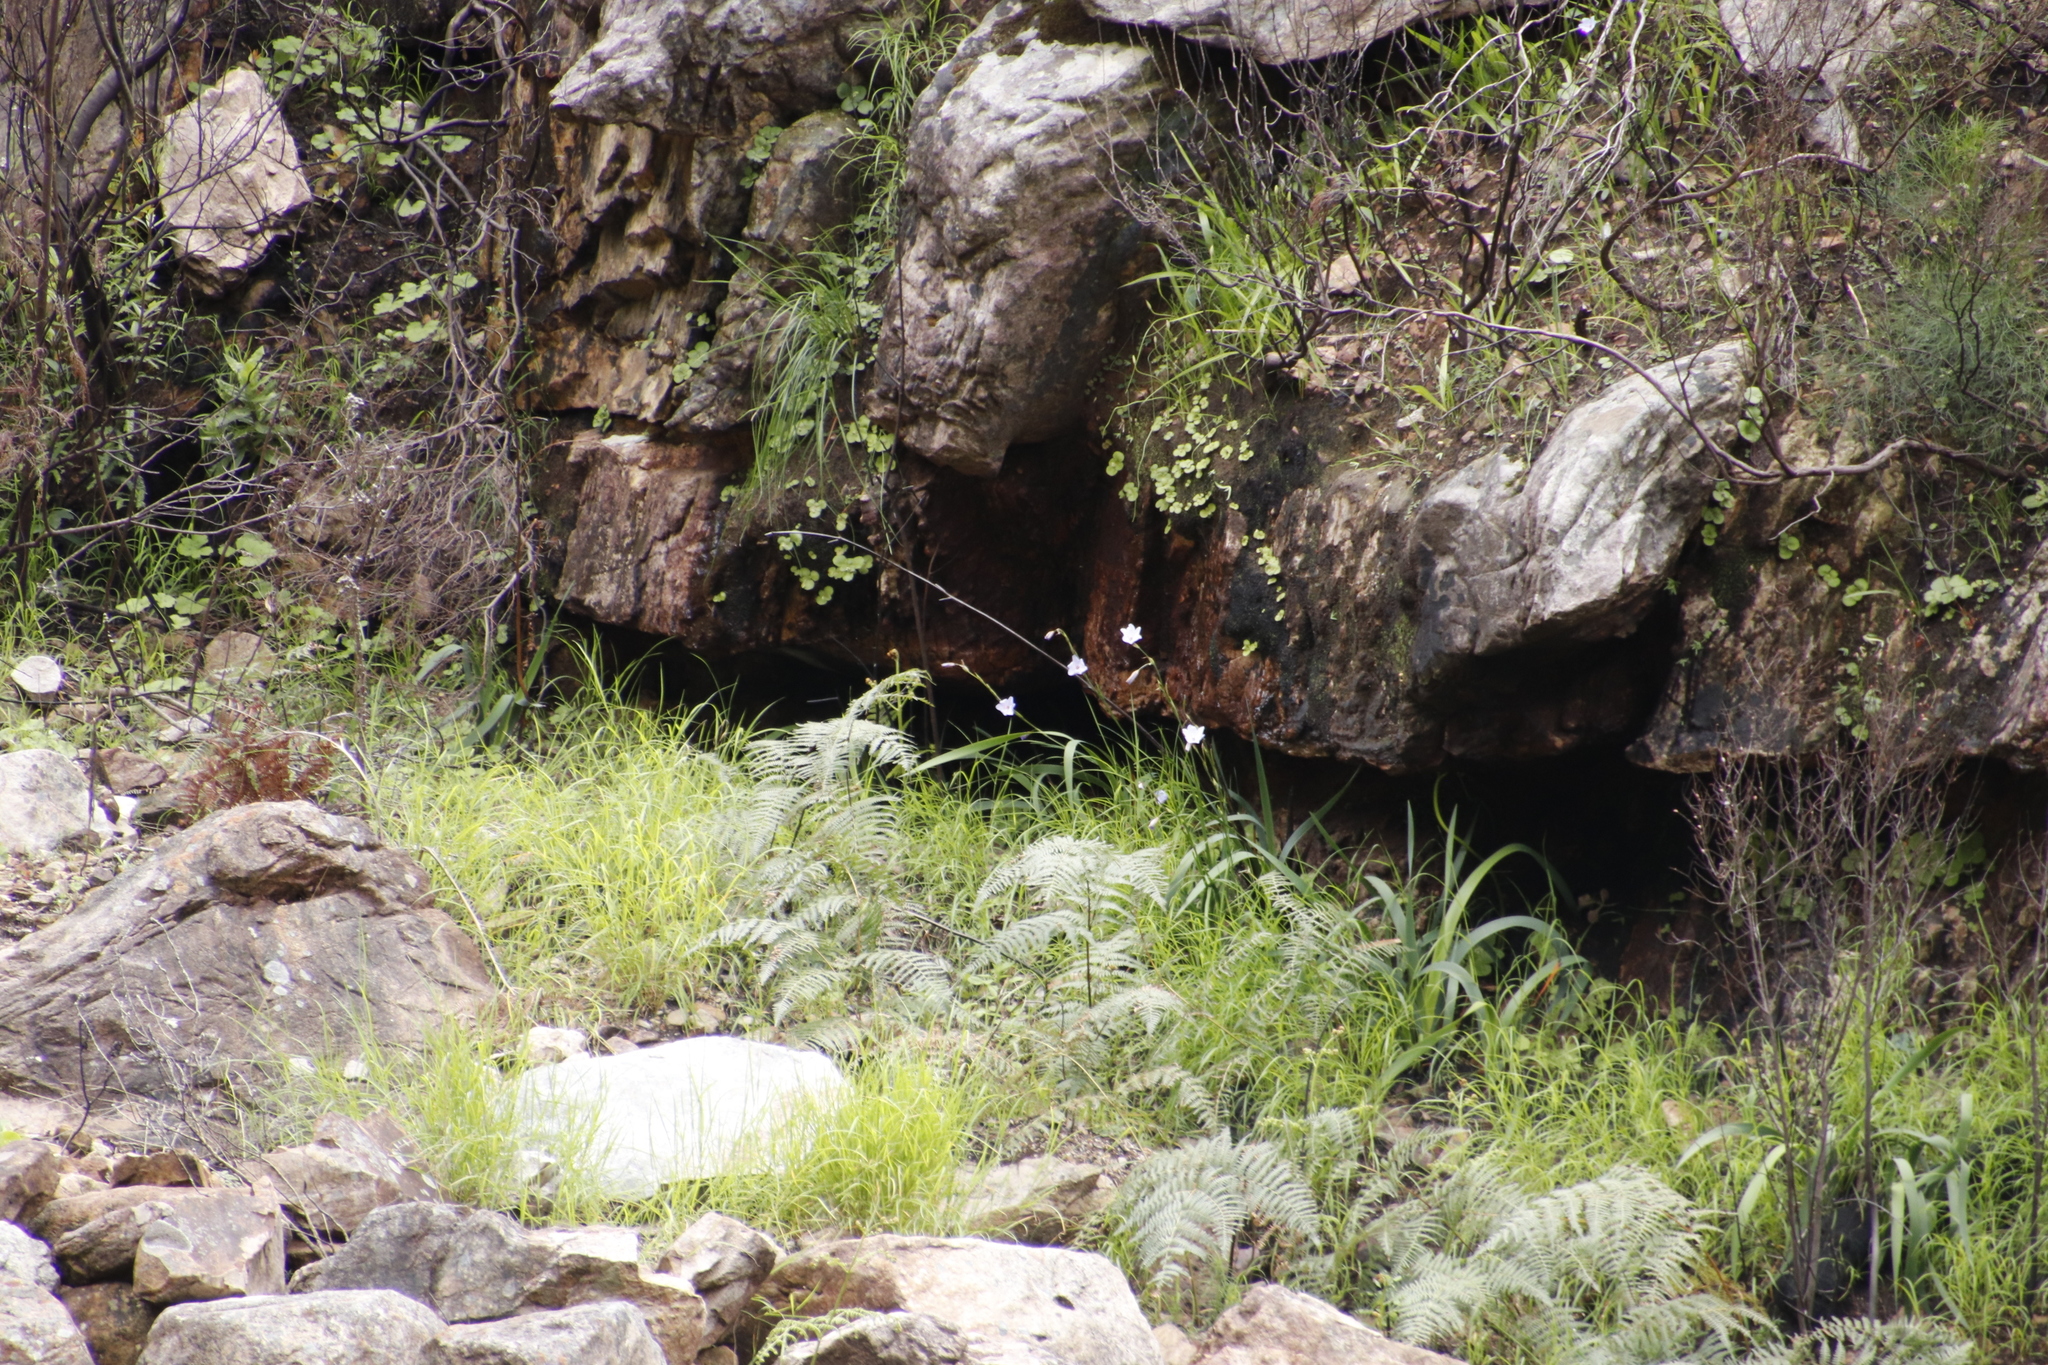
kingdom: Plantae
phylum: Tracheophyta
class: Liliopsida
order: Asparagales
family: Iridaceae
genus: Aristea
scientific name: Aristea spiralis
